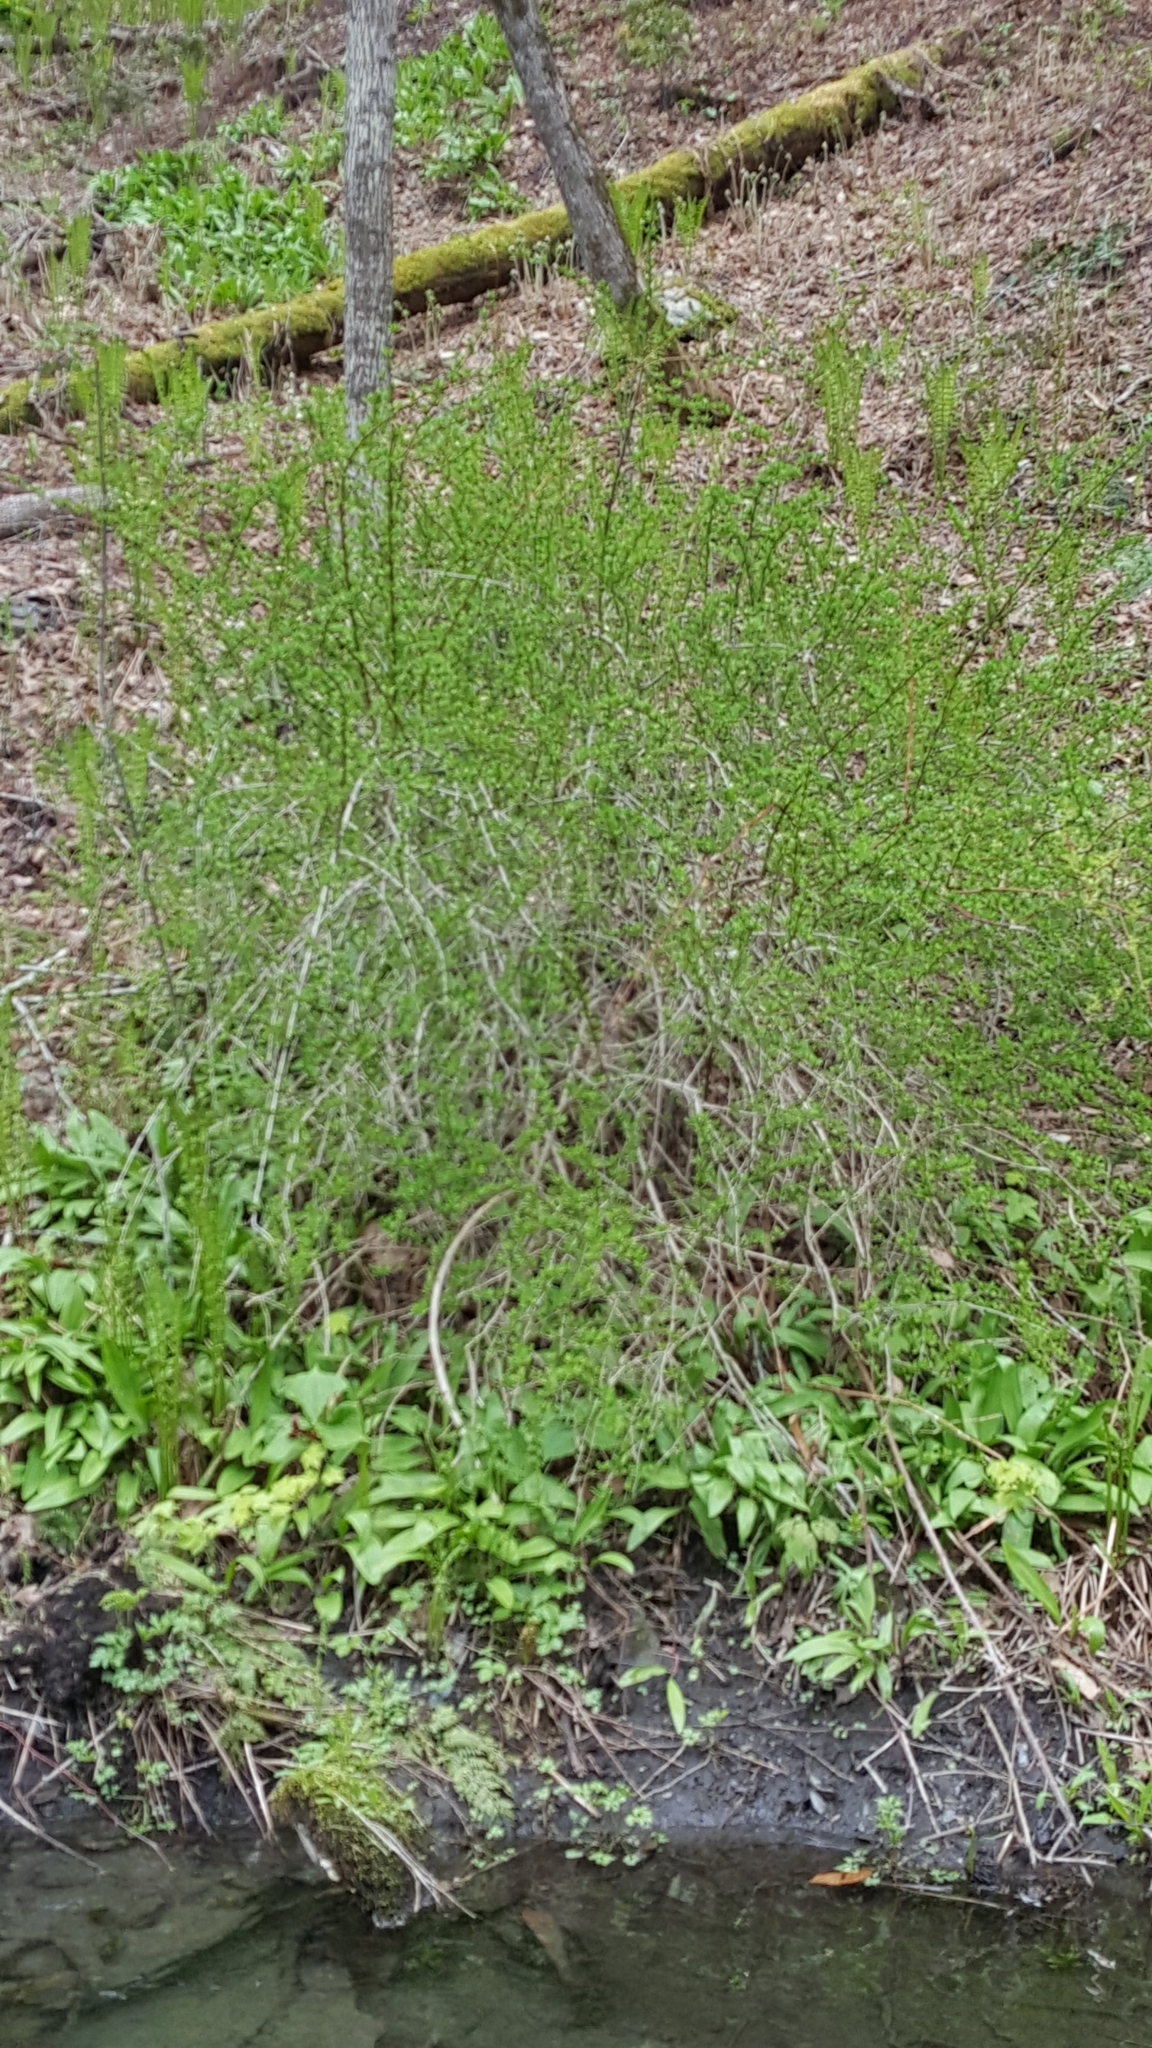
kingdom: Plantae
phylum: Tracheophyta
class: Magnoliopsida
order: Ranunculales
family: Berberidaceae
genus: Berberis
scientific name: Berberis
